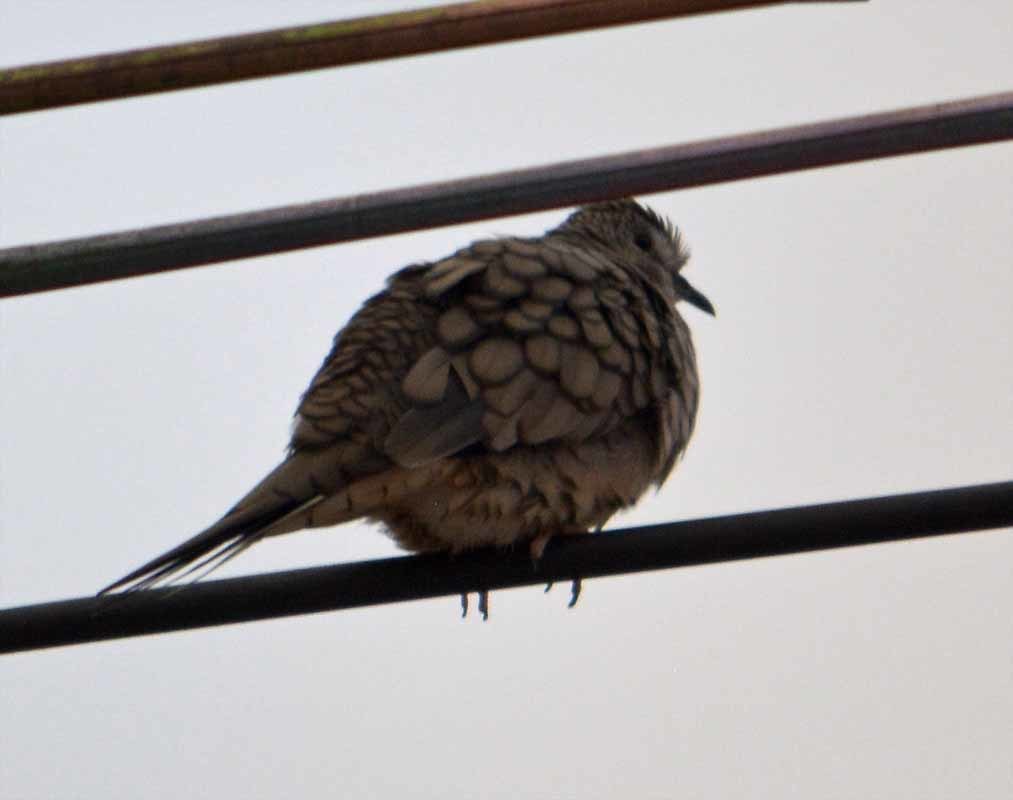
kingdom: Animalia
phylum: Chordata
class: Aves
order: Columbiformes
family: Columbidae
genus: Columbina
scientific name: Columbina inca
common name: Inca dove
